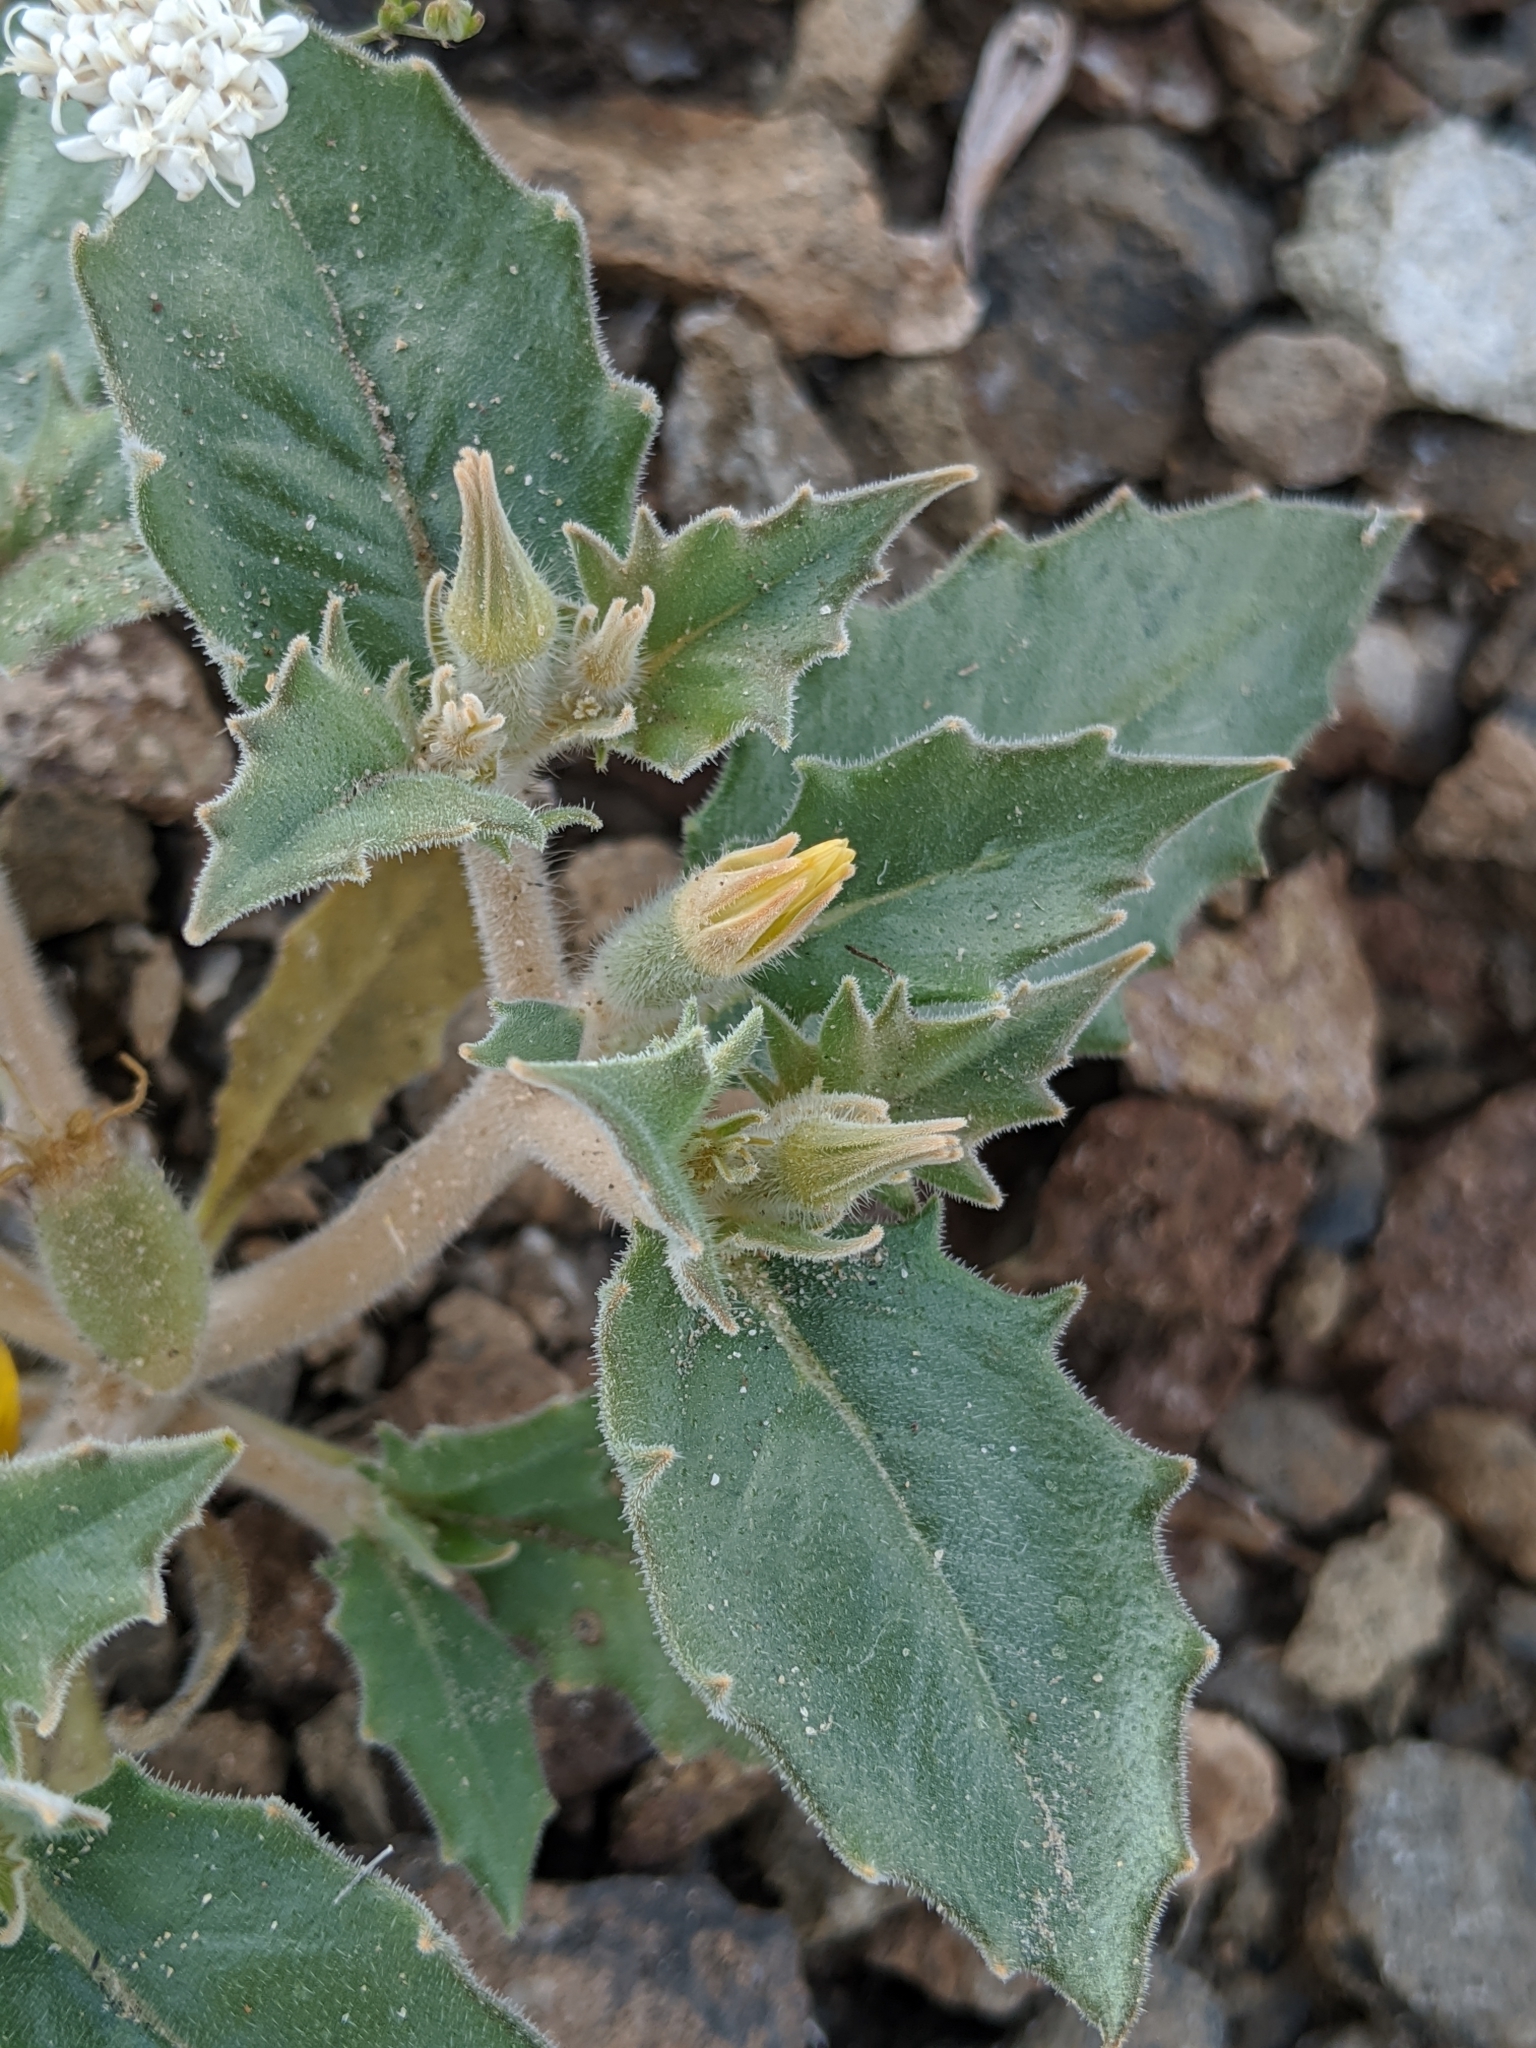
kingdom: Plantae
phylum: Tracheophyta
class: Magnoliopsida
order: Cornales
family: Loasaceae
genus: Mentzelia
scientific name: Mentzelia reflexa
